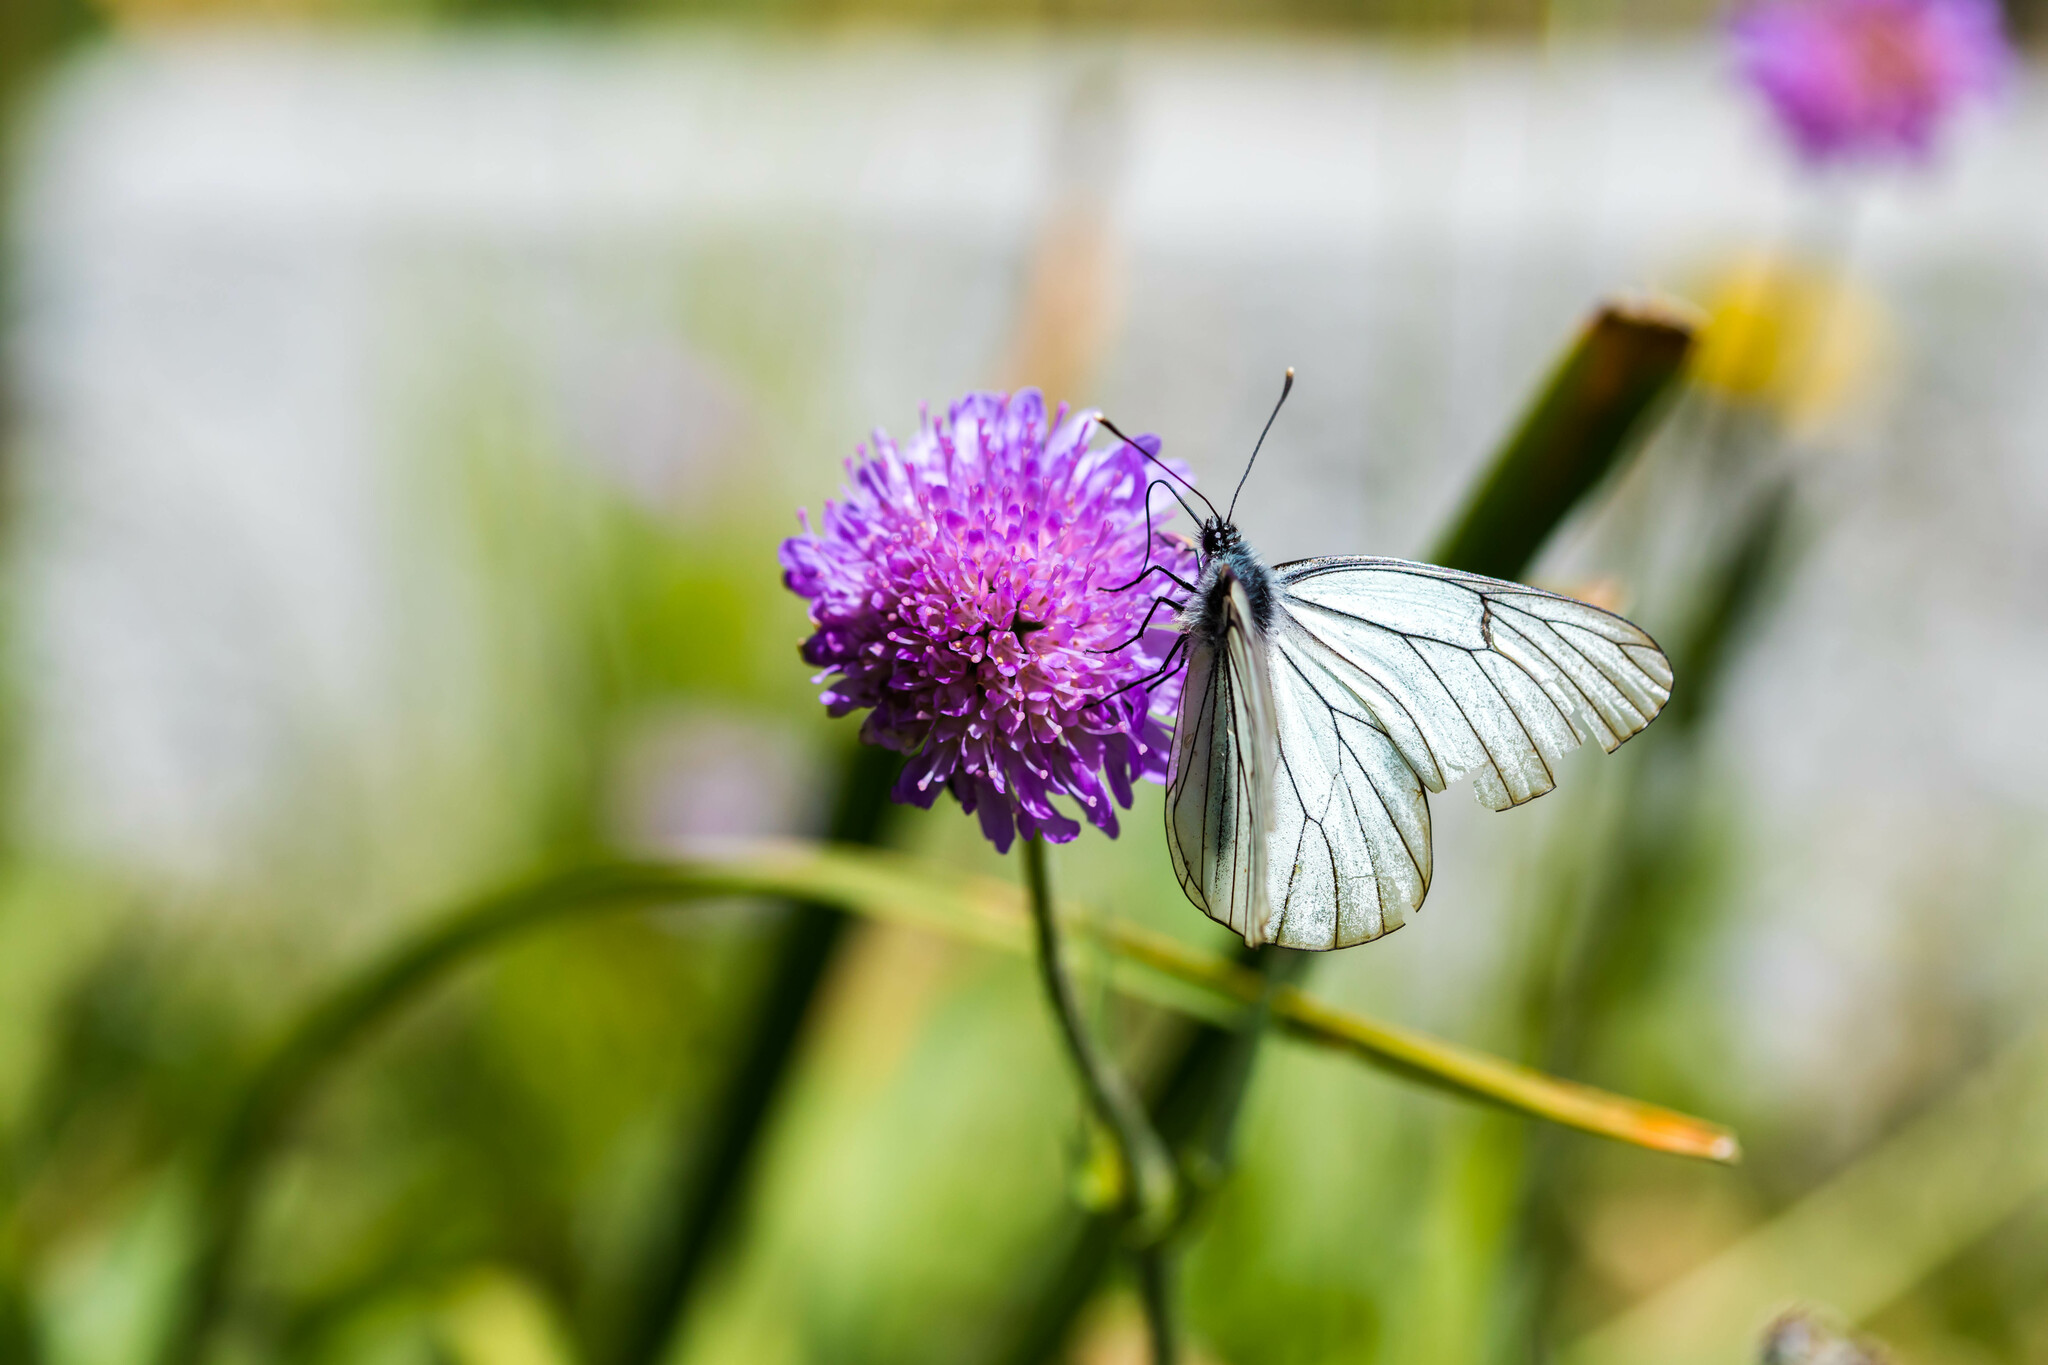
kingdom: Animalia
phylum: Arthropoda
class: Insecta
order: Lepidoptera
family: Pieridae
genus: Aporia
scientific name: Aporia crataegi
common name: Black-veined white
